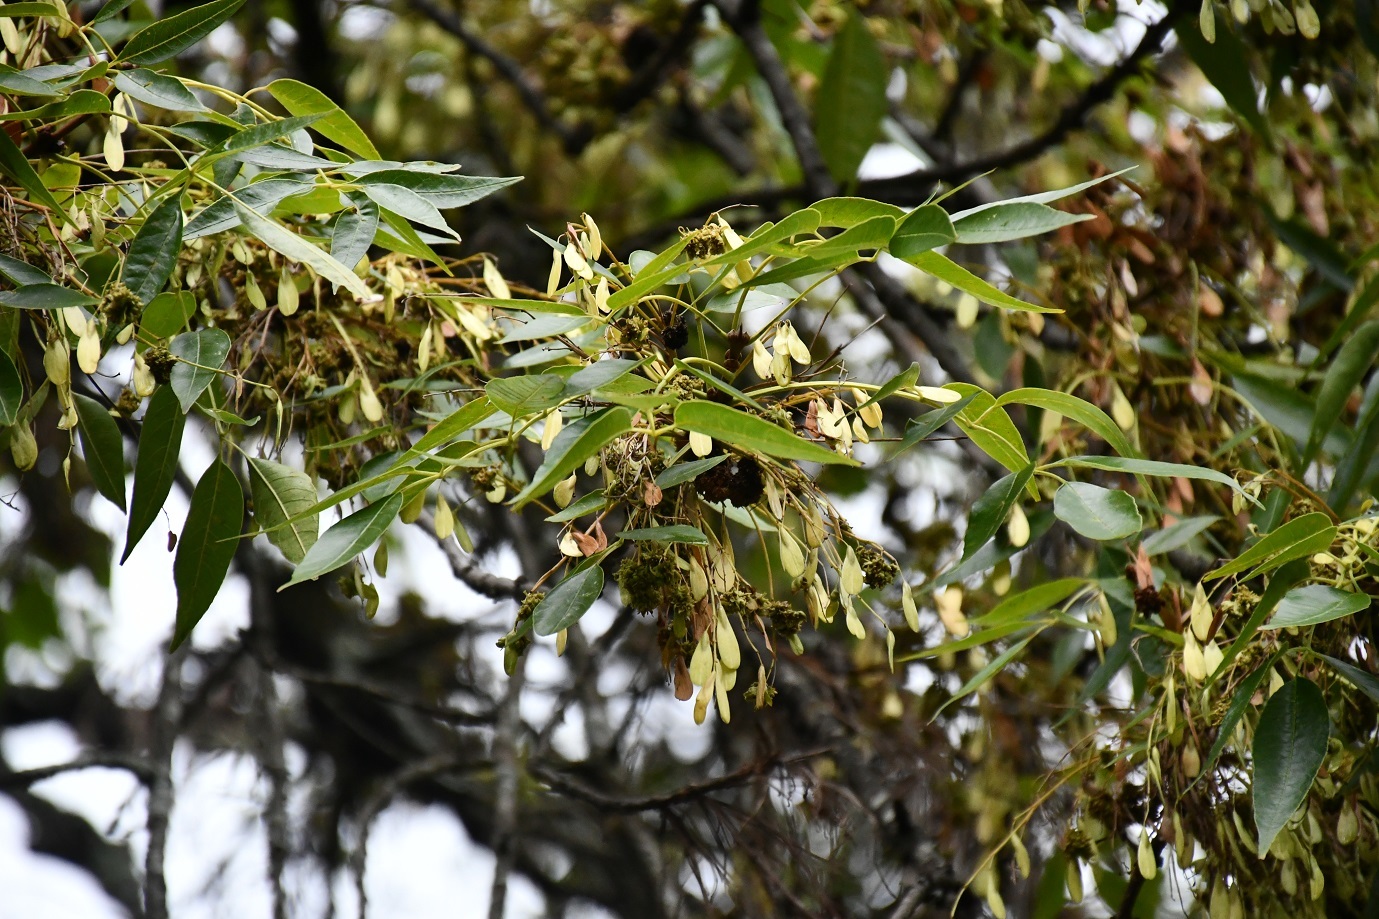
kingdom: Plantae
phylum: Tracheophyta
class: Magnoliopsida
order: Lamiales
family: Oleaceae
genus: Fraxinus
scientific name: Fraxinus purpusii
